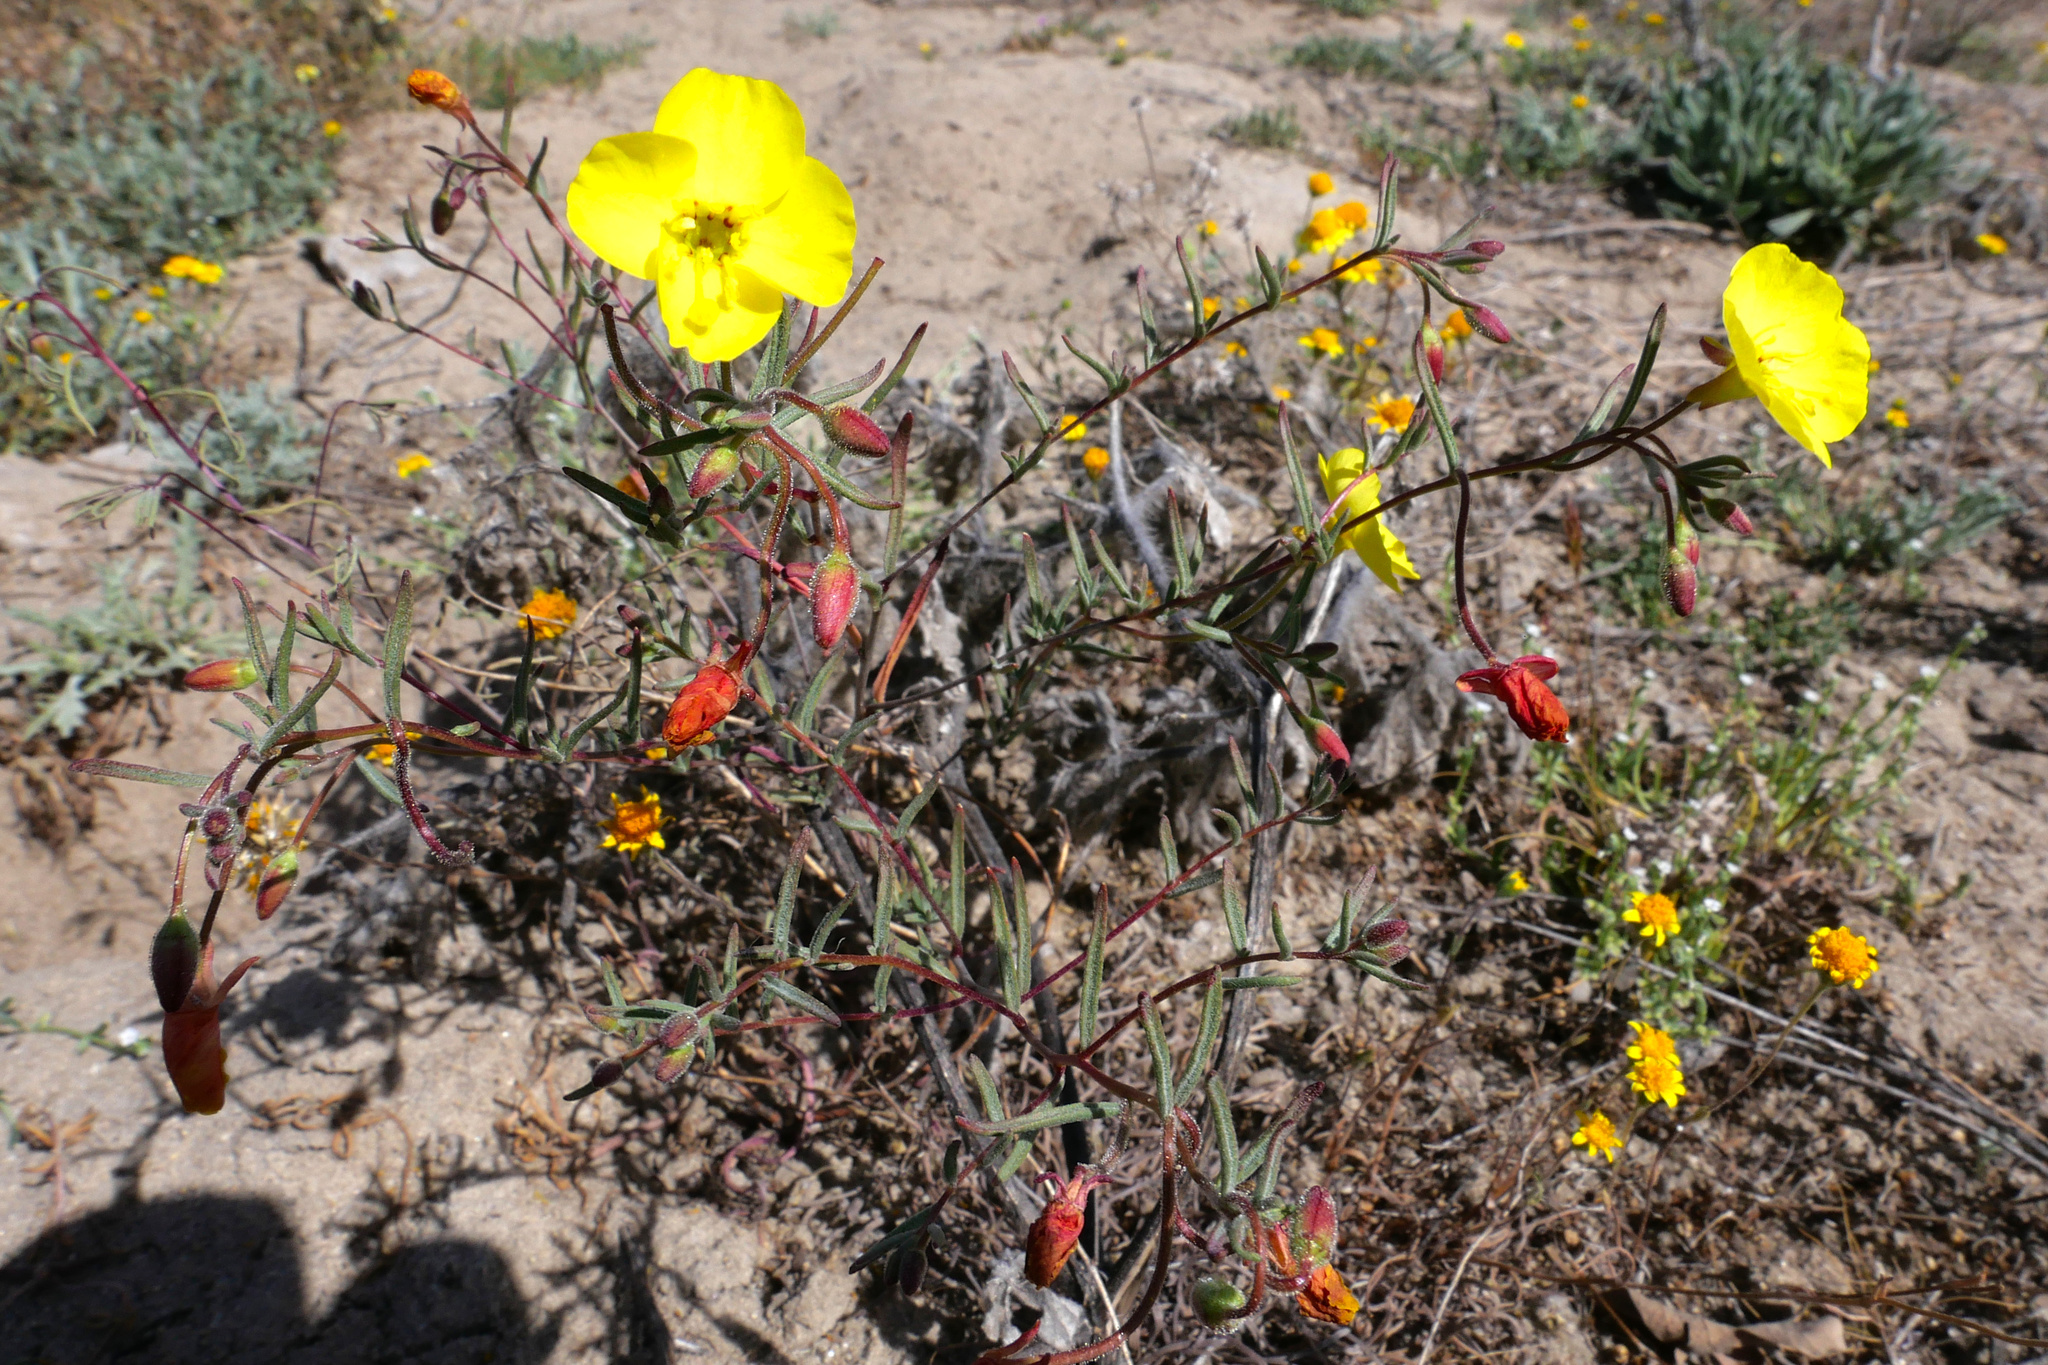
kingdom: Plantae
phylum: Tracheophyta
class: Magnoliopsida
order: Myrtales
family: Onagraceae
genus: Camissonia
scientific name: Camissonia campestris
